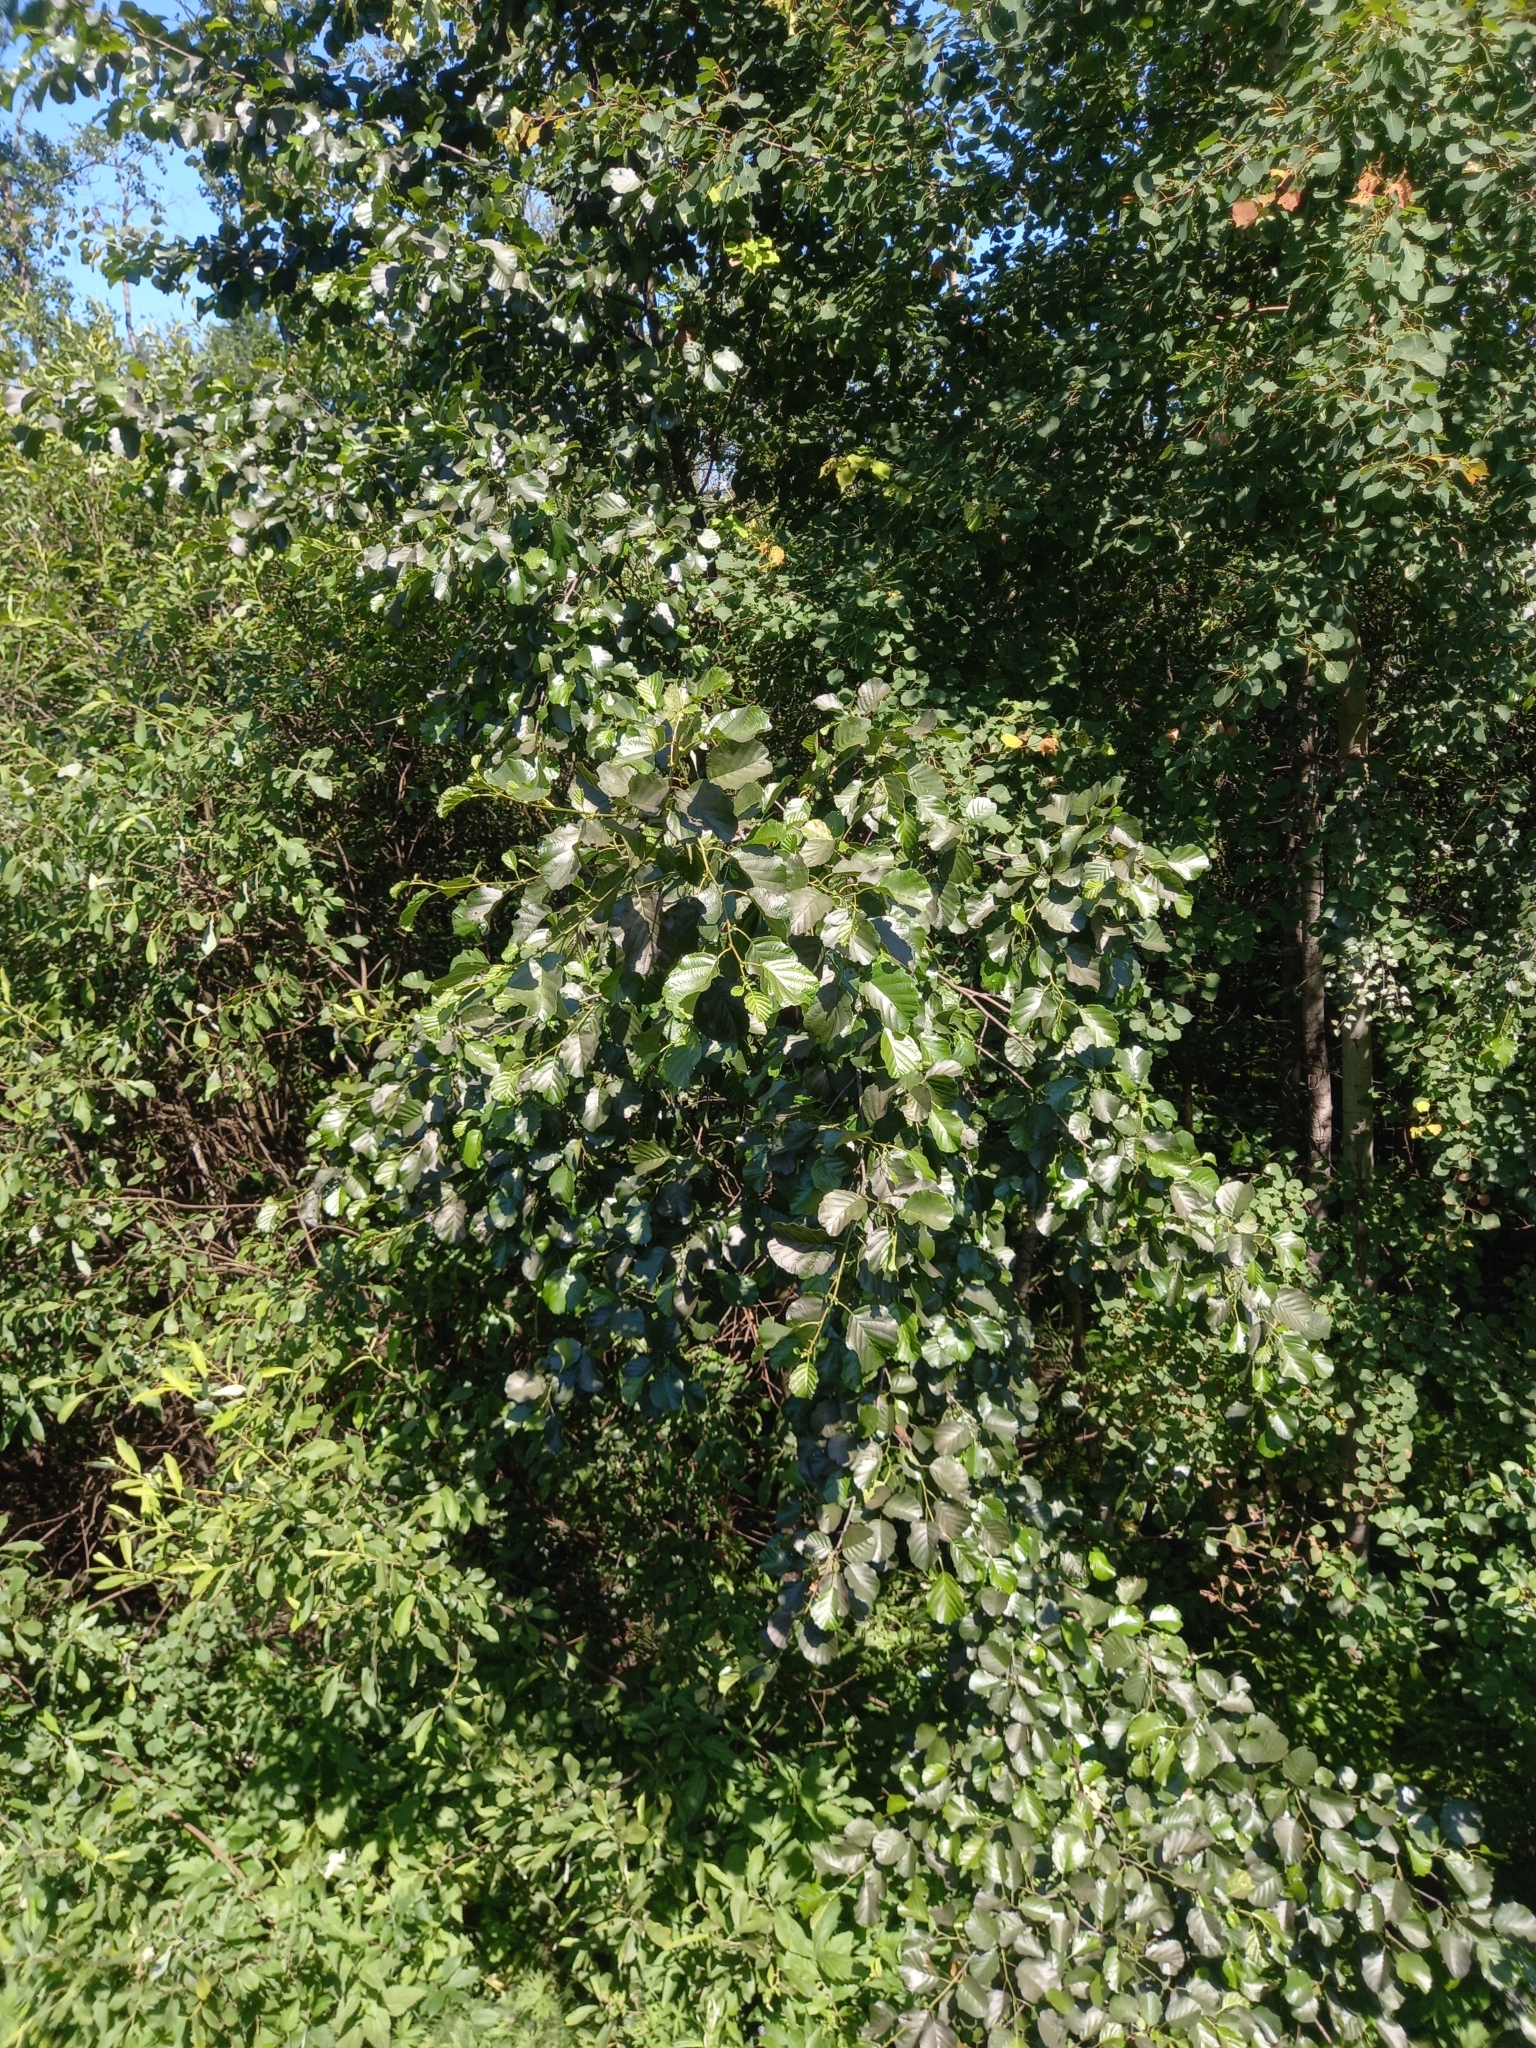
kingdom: Plantae
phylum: Tracheophyta
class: Magnoliopsida
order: Fagales
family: Betulaceae
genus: Alnus
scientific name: Alnus glutinosa
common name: Black alder
